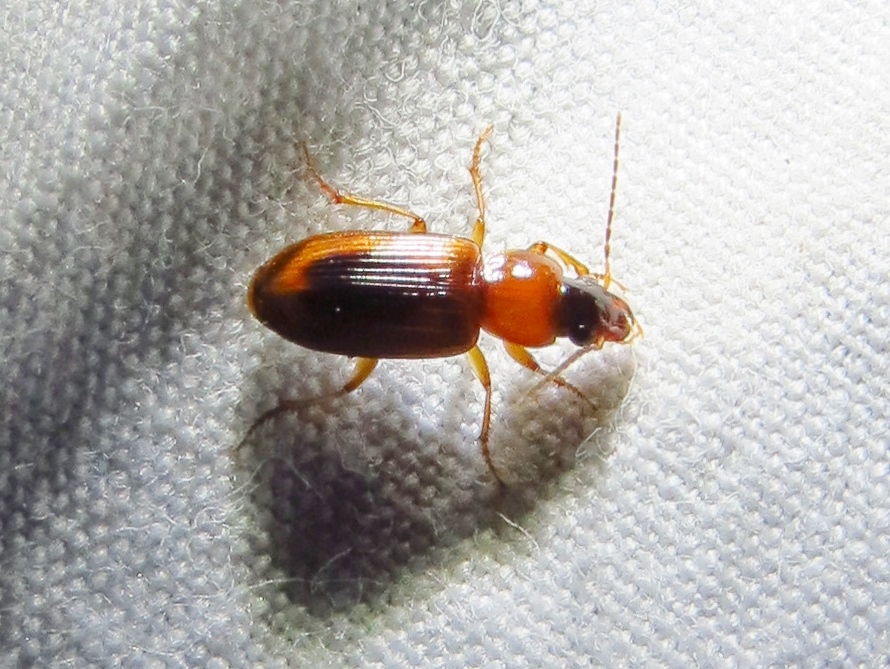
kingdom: Animalia
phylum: Arthropoda
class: Insecta
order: Coleoptera
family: Carabidae
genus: Stenolophus
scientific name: Stenolophus dissimilis
